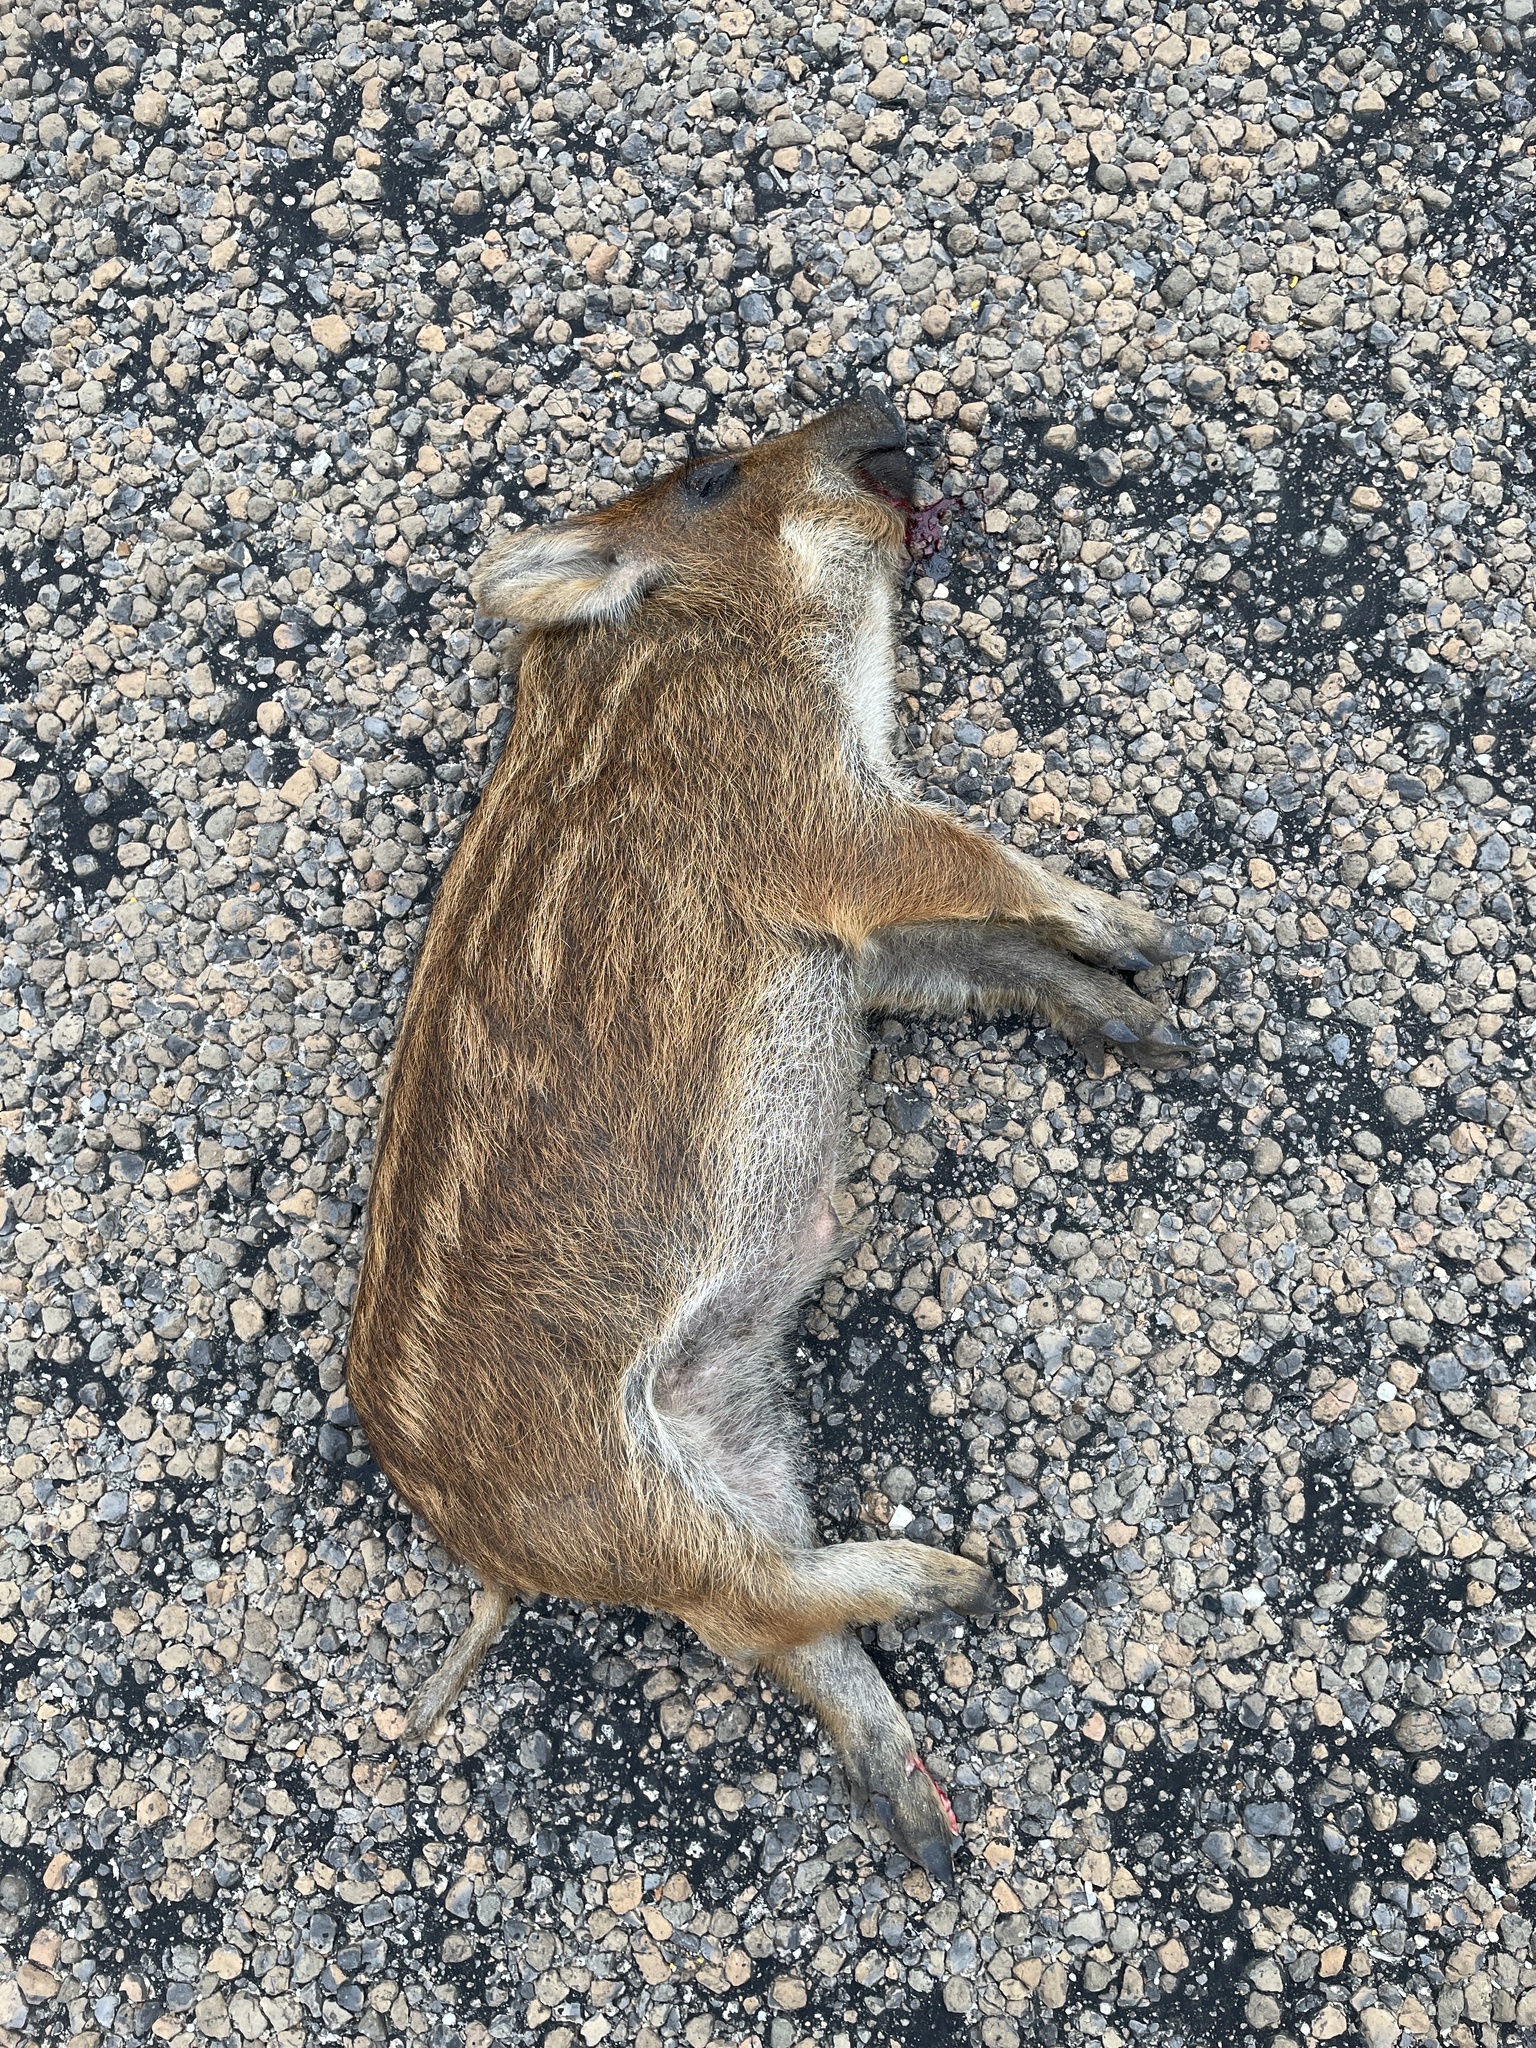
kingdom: Animalia
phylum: Chordata
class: Mammalia
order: Artiodactyla
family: Suidae
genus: Sus
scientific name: Sus scrofa
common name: Wild boar
